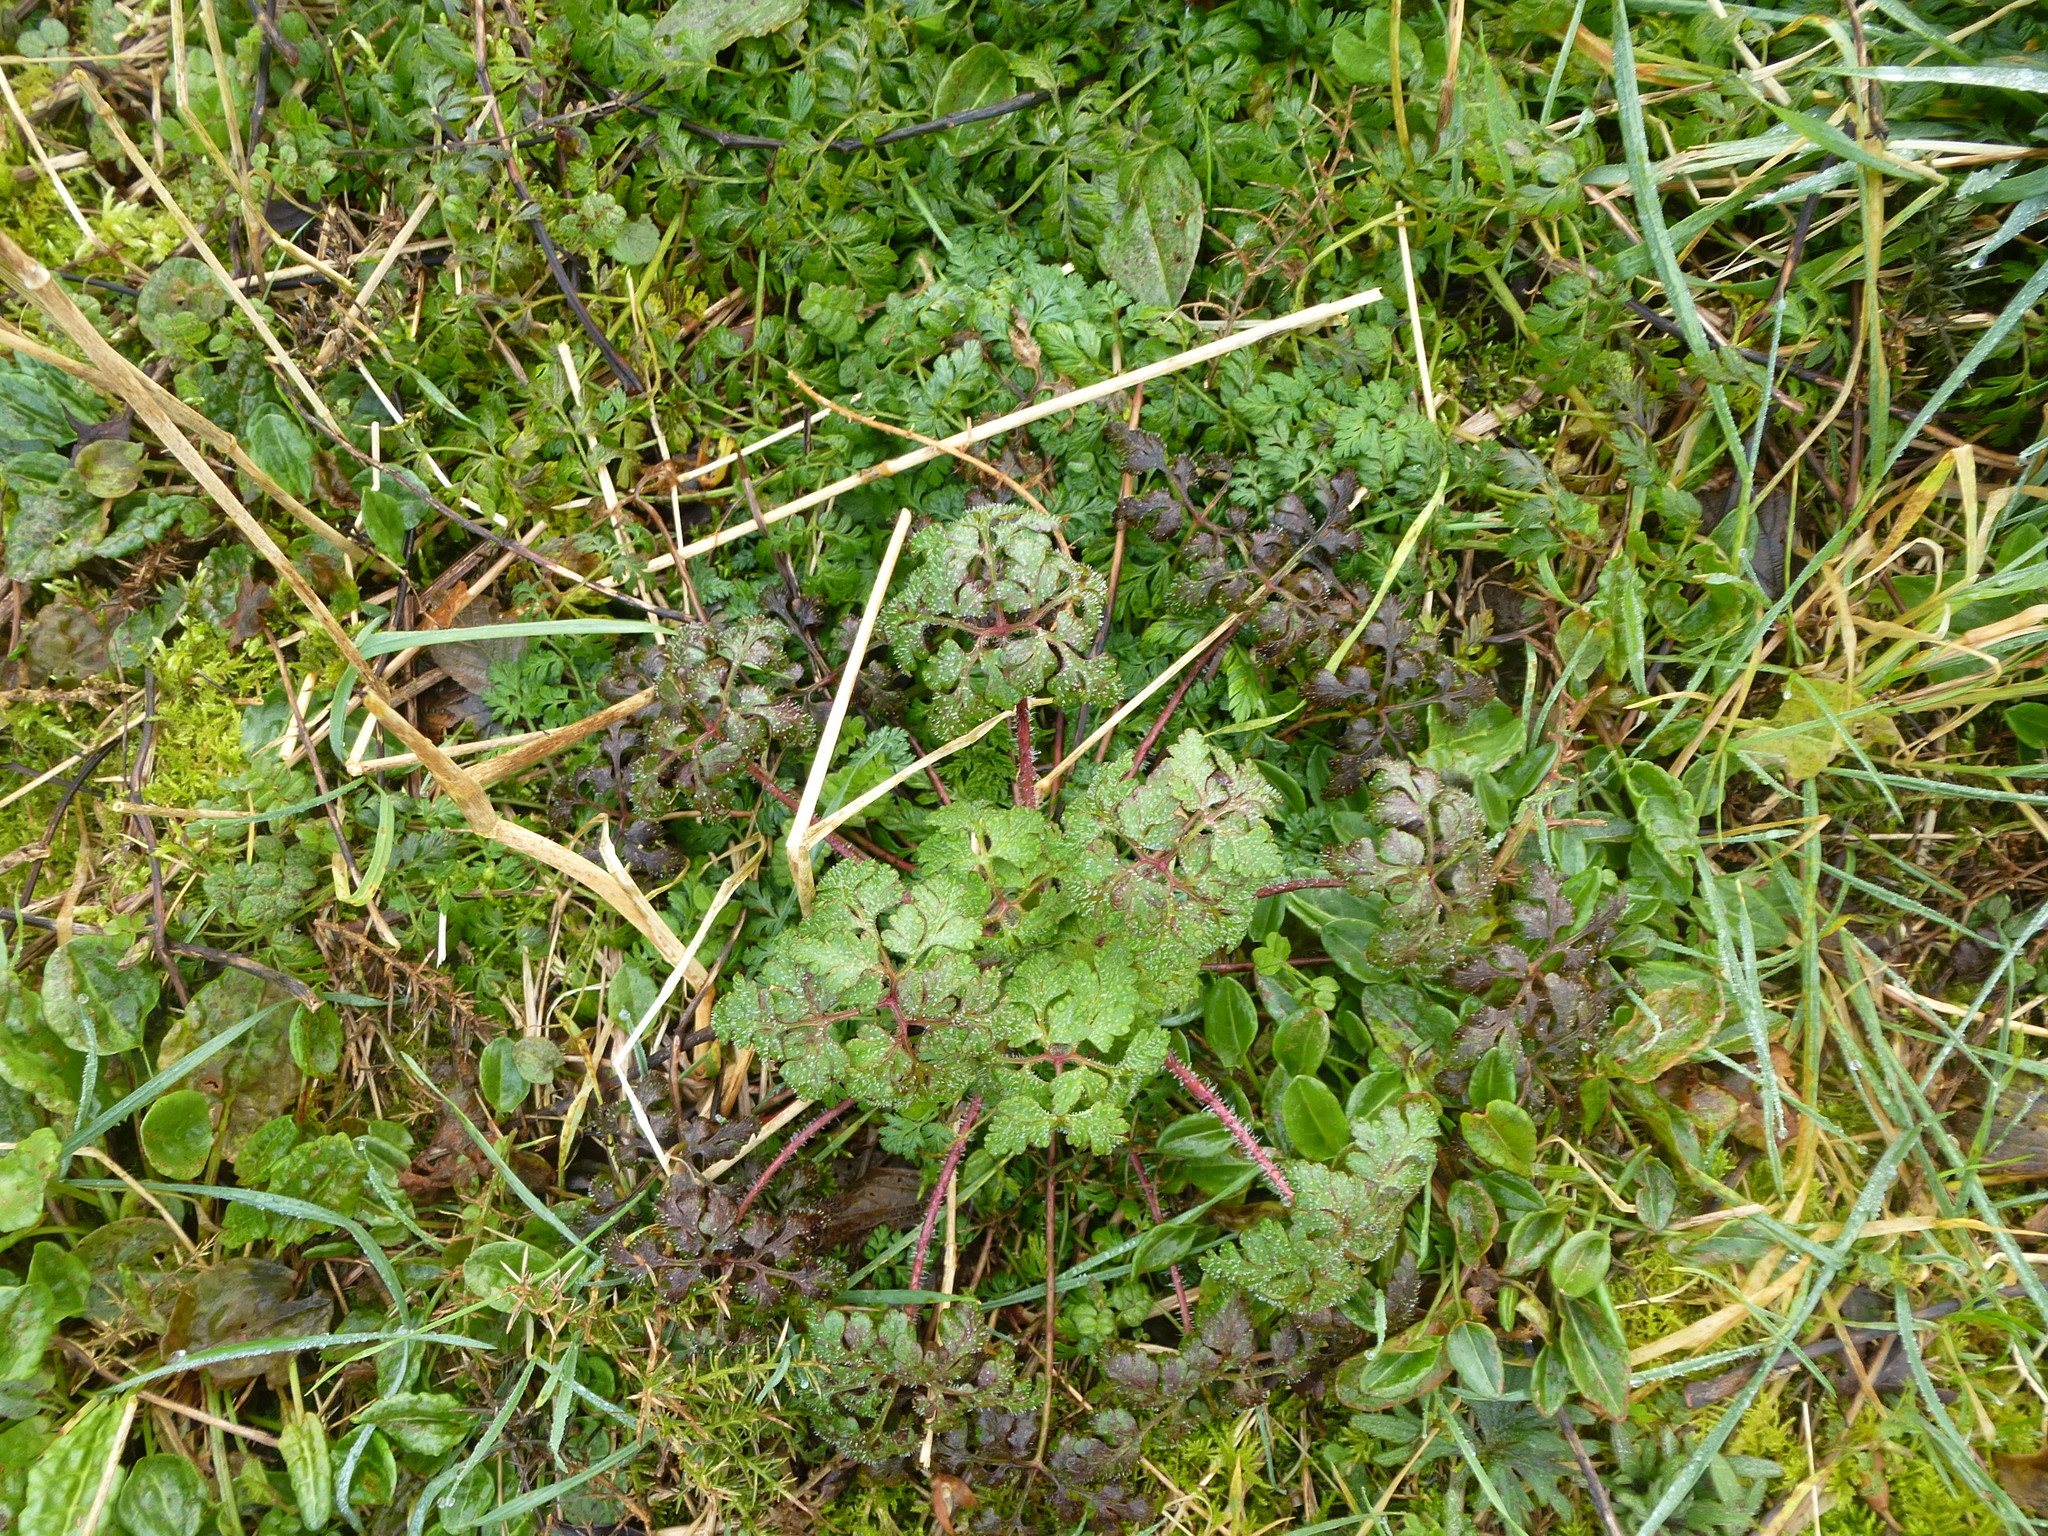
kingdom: Plantae
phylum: Tracheophyta
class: Magnoliopsida
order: Geraniales
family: Geraniaceae
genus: Geranium
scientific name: Geranium robertianum
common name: Herb-robert
